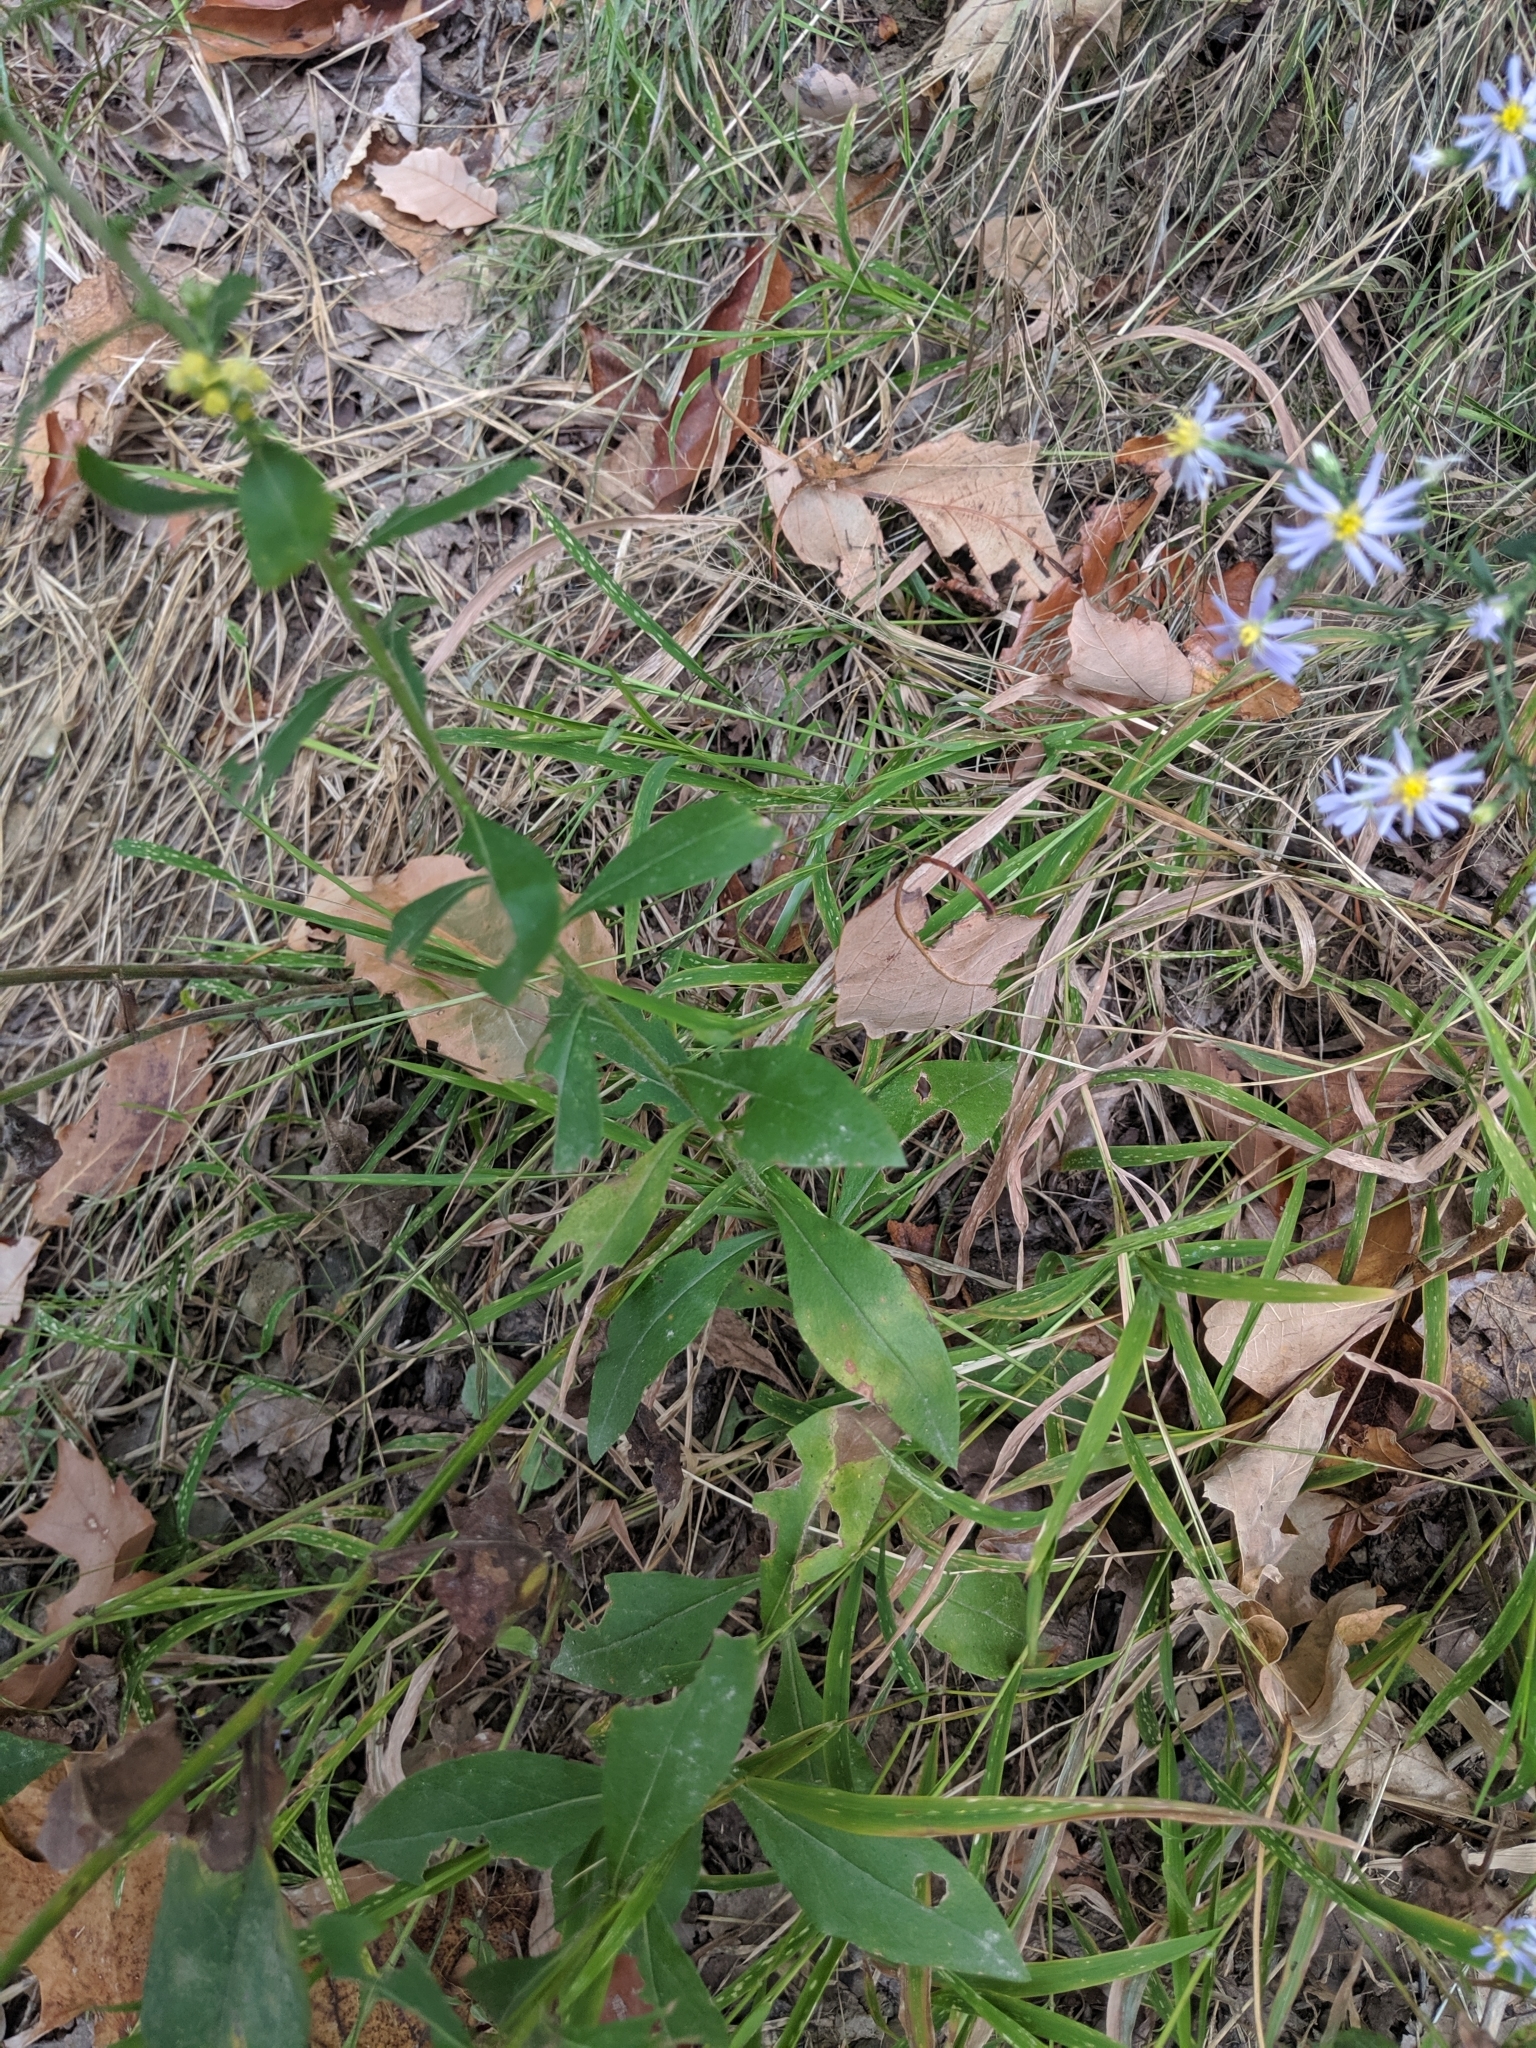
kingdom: Plantae
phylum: Tracheophyta
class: Magnoliopsida
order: Asterales
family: Asteraceae
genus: Solidago
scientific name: Solidago bicolor
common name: Silverrod
